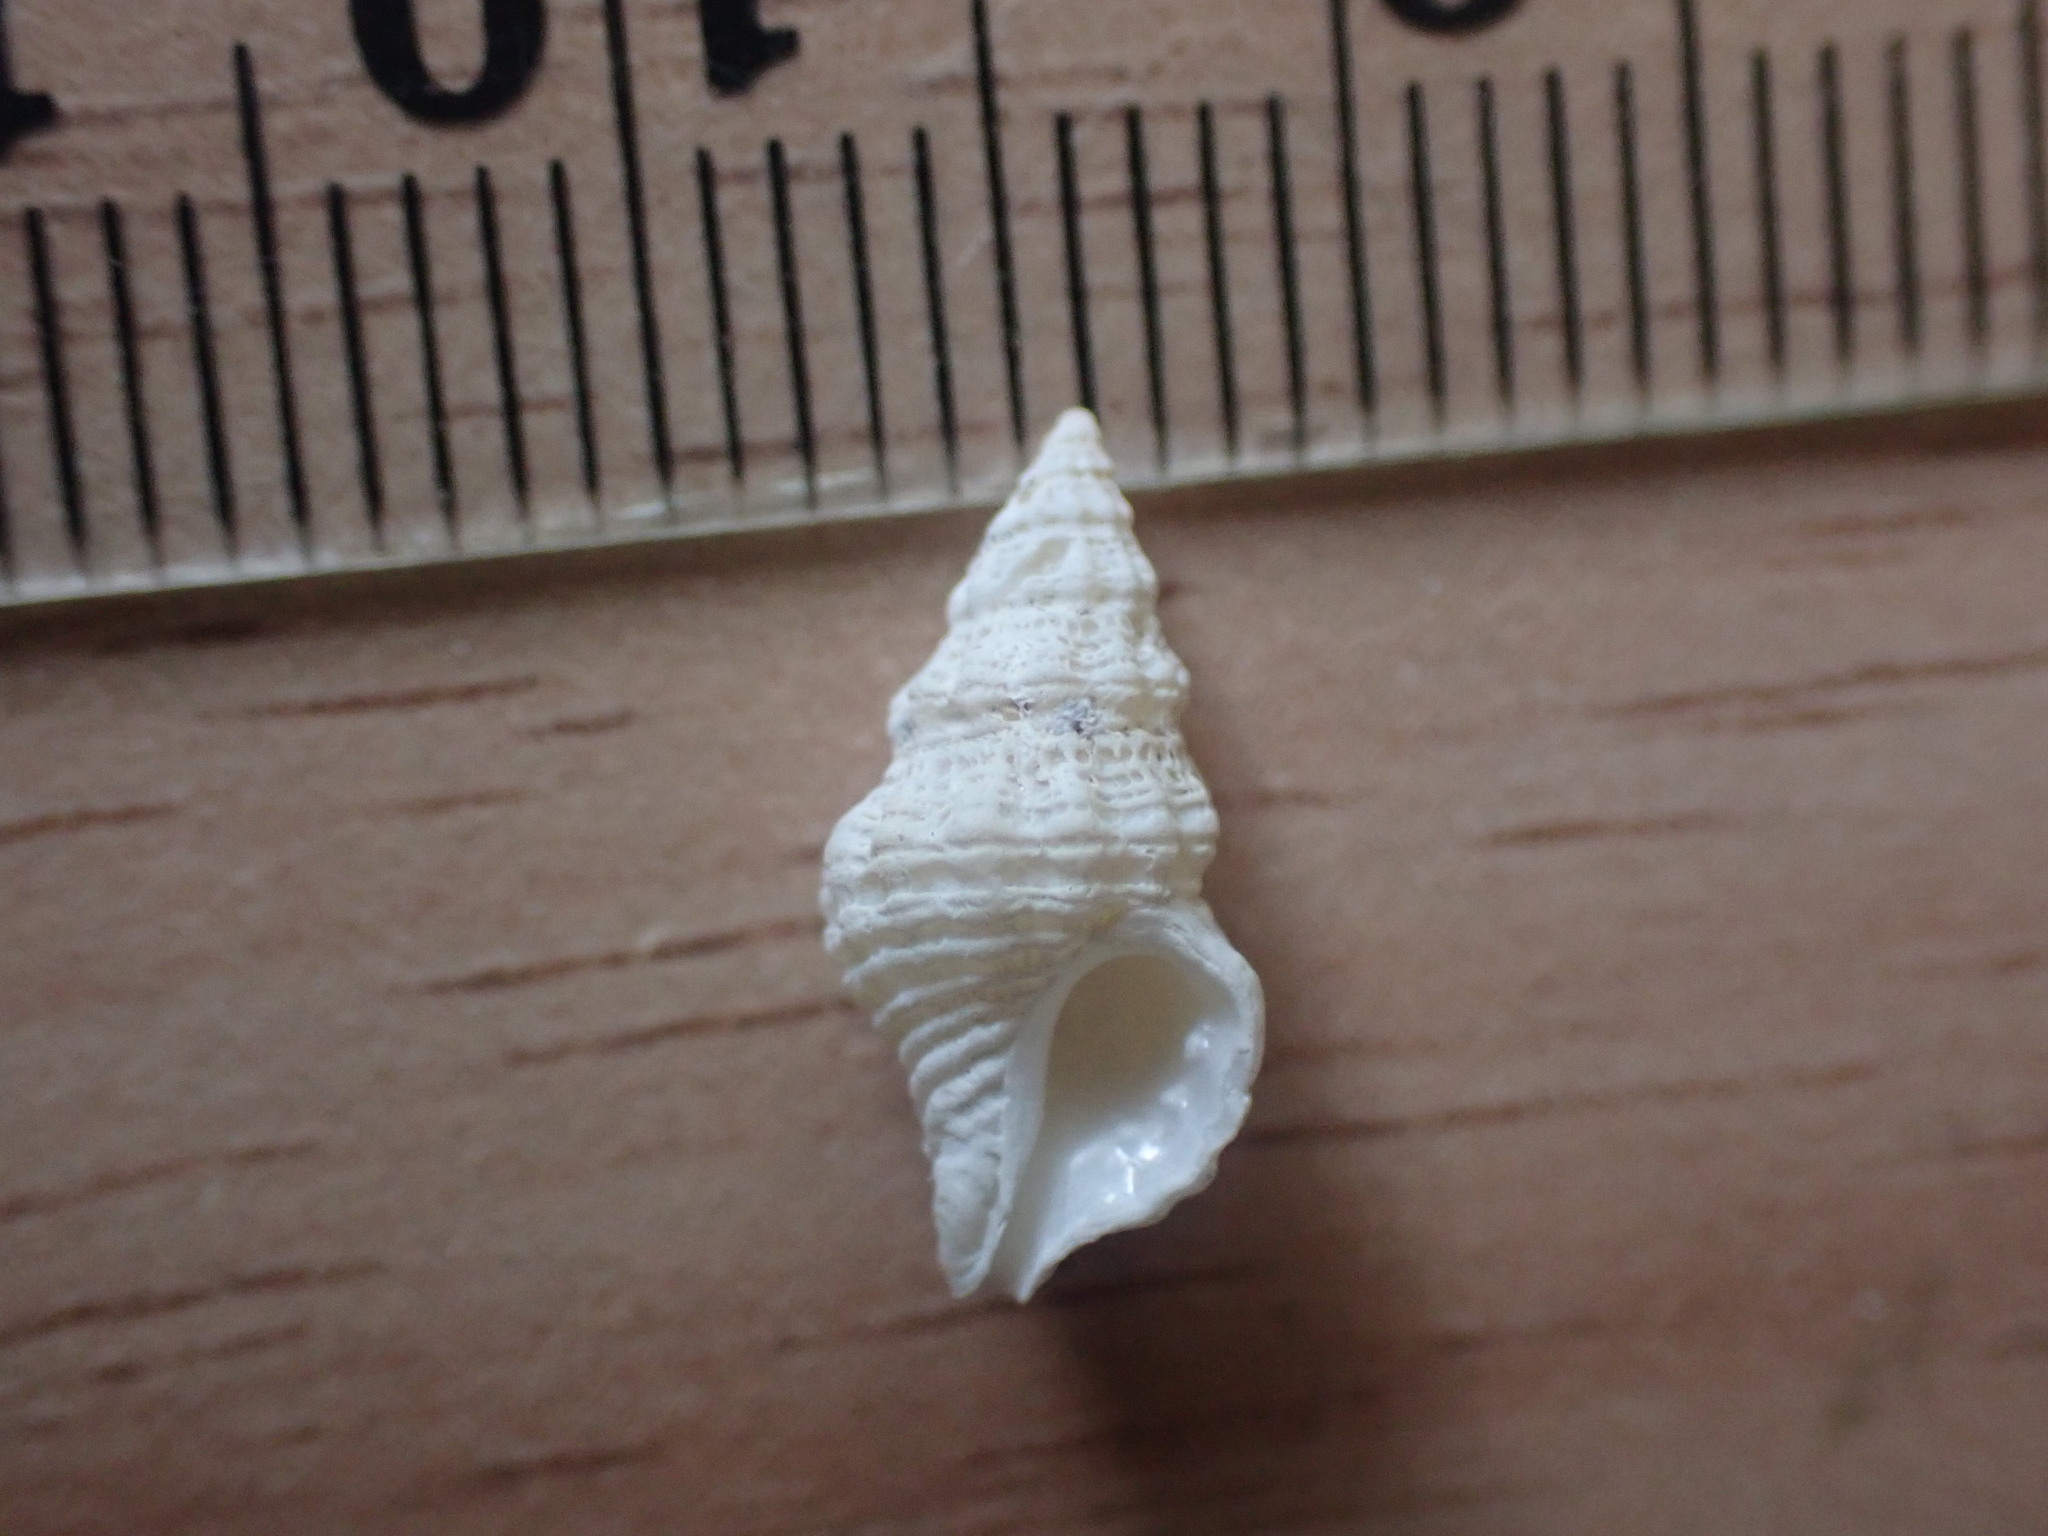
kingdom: Animalia
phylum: Mollusca
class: Gastropoda
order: Neogastropoda
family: Muricidae
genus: Lamellitrophon
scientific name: Lamellitrophon huttonii
